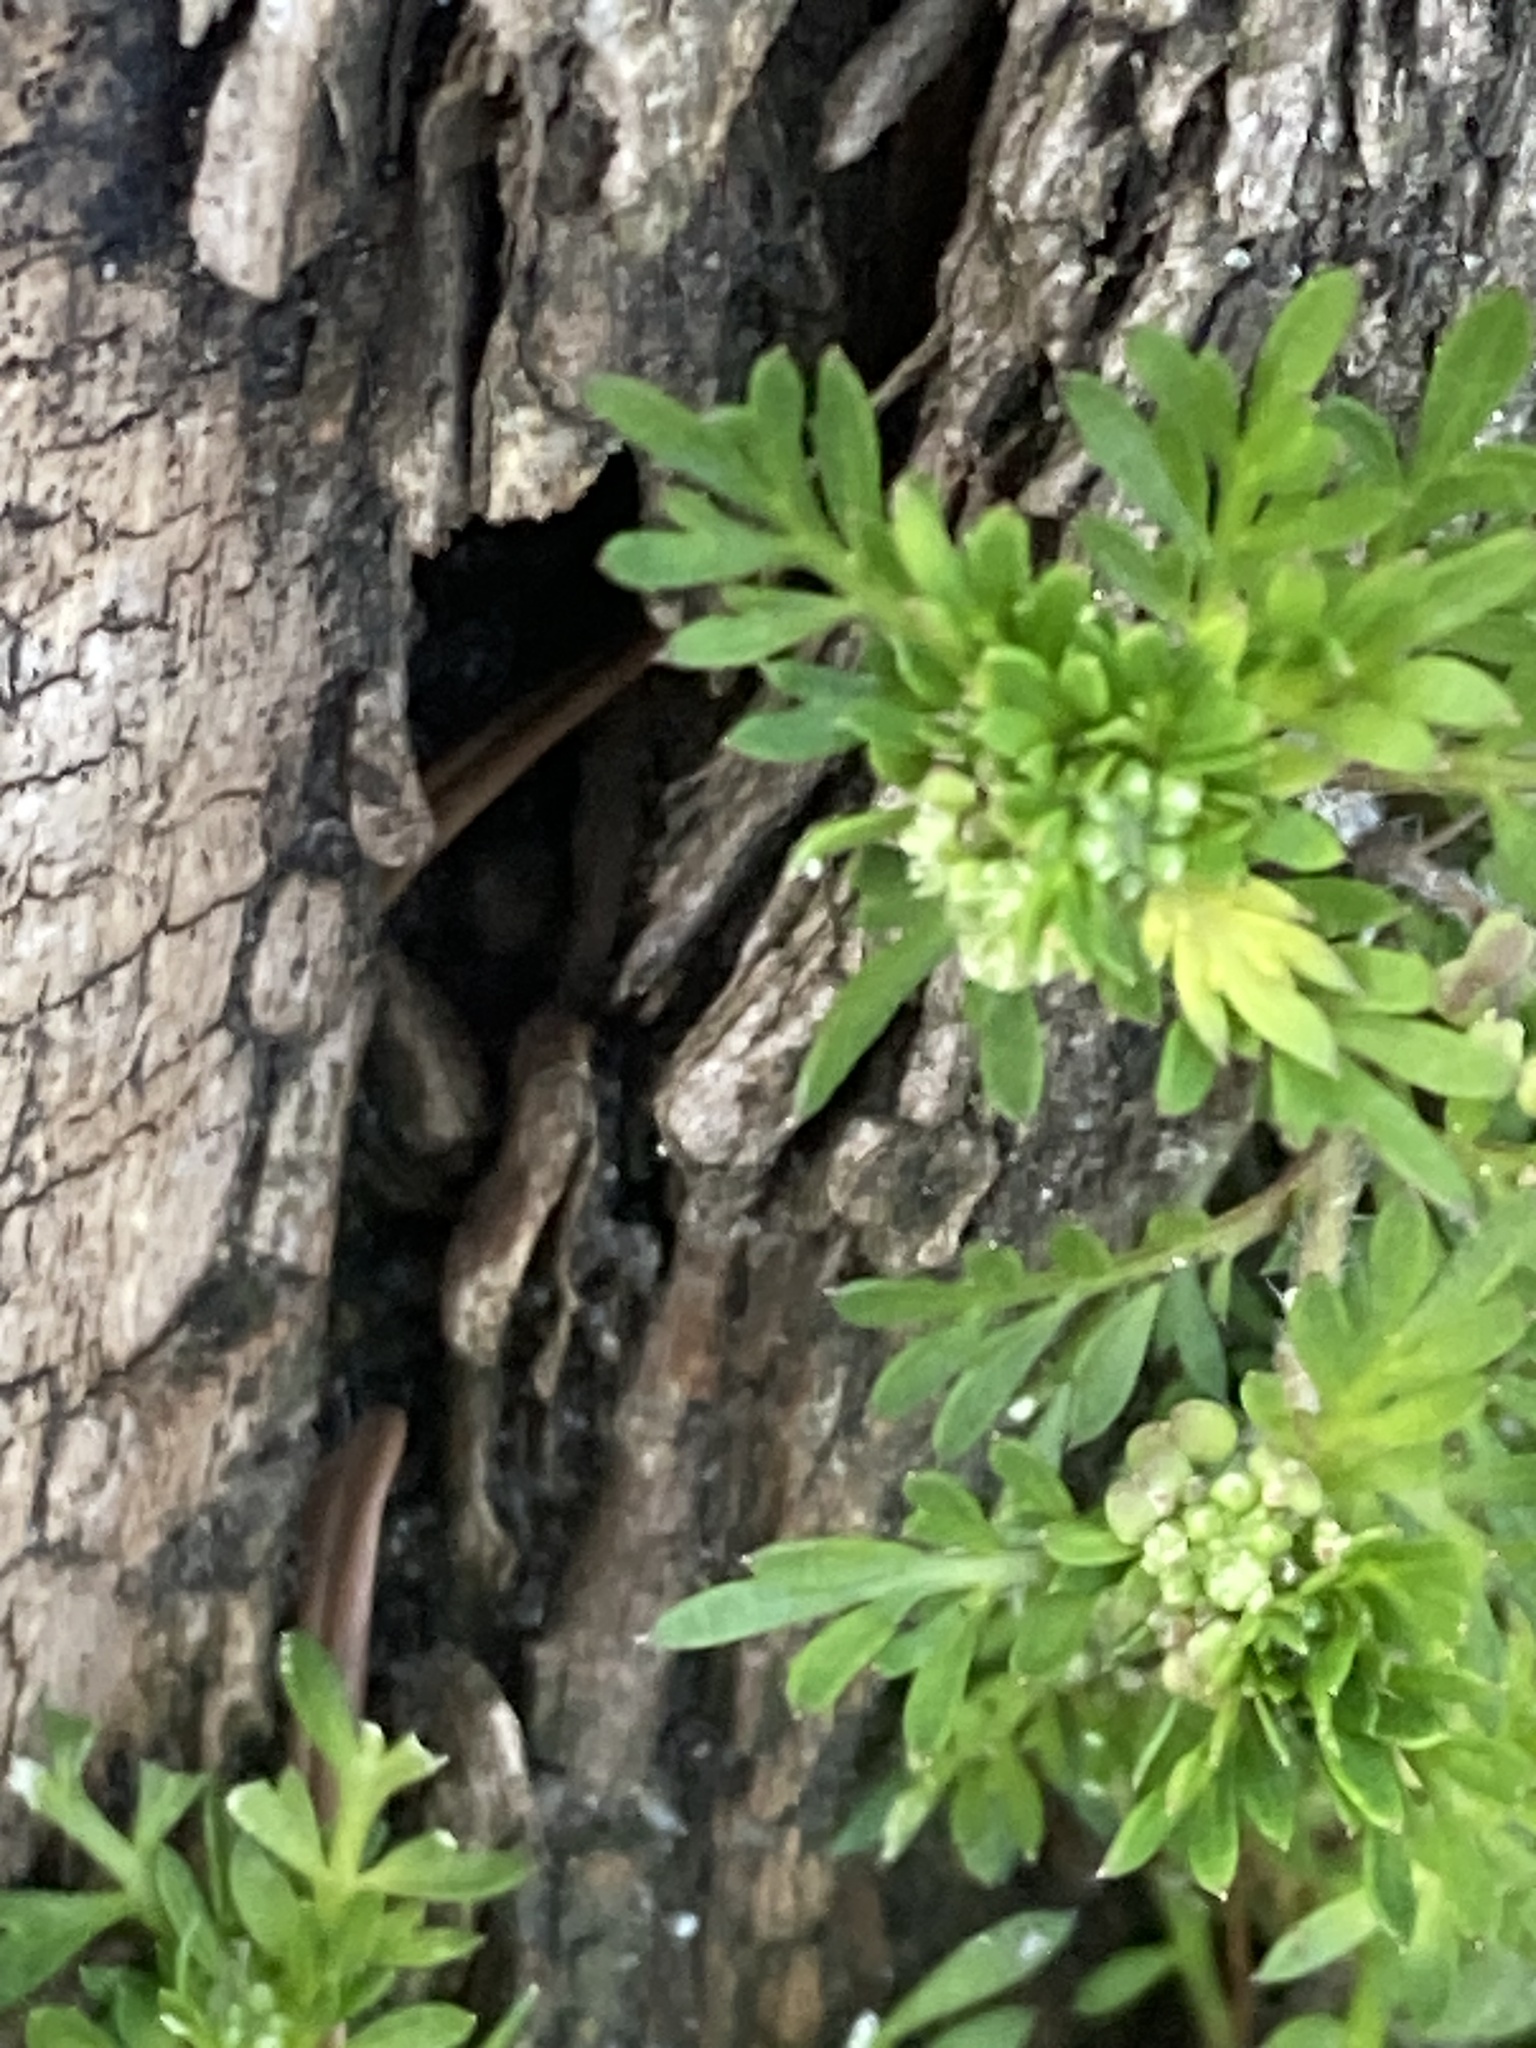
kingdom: Plantae
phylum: Tracheophyta
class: Magnoliopsida
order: Brassicales
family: Brassicaceae
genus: Lepidium
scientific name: Lepidium didymum
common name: Lesser swinecress
